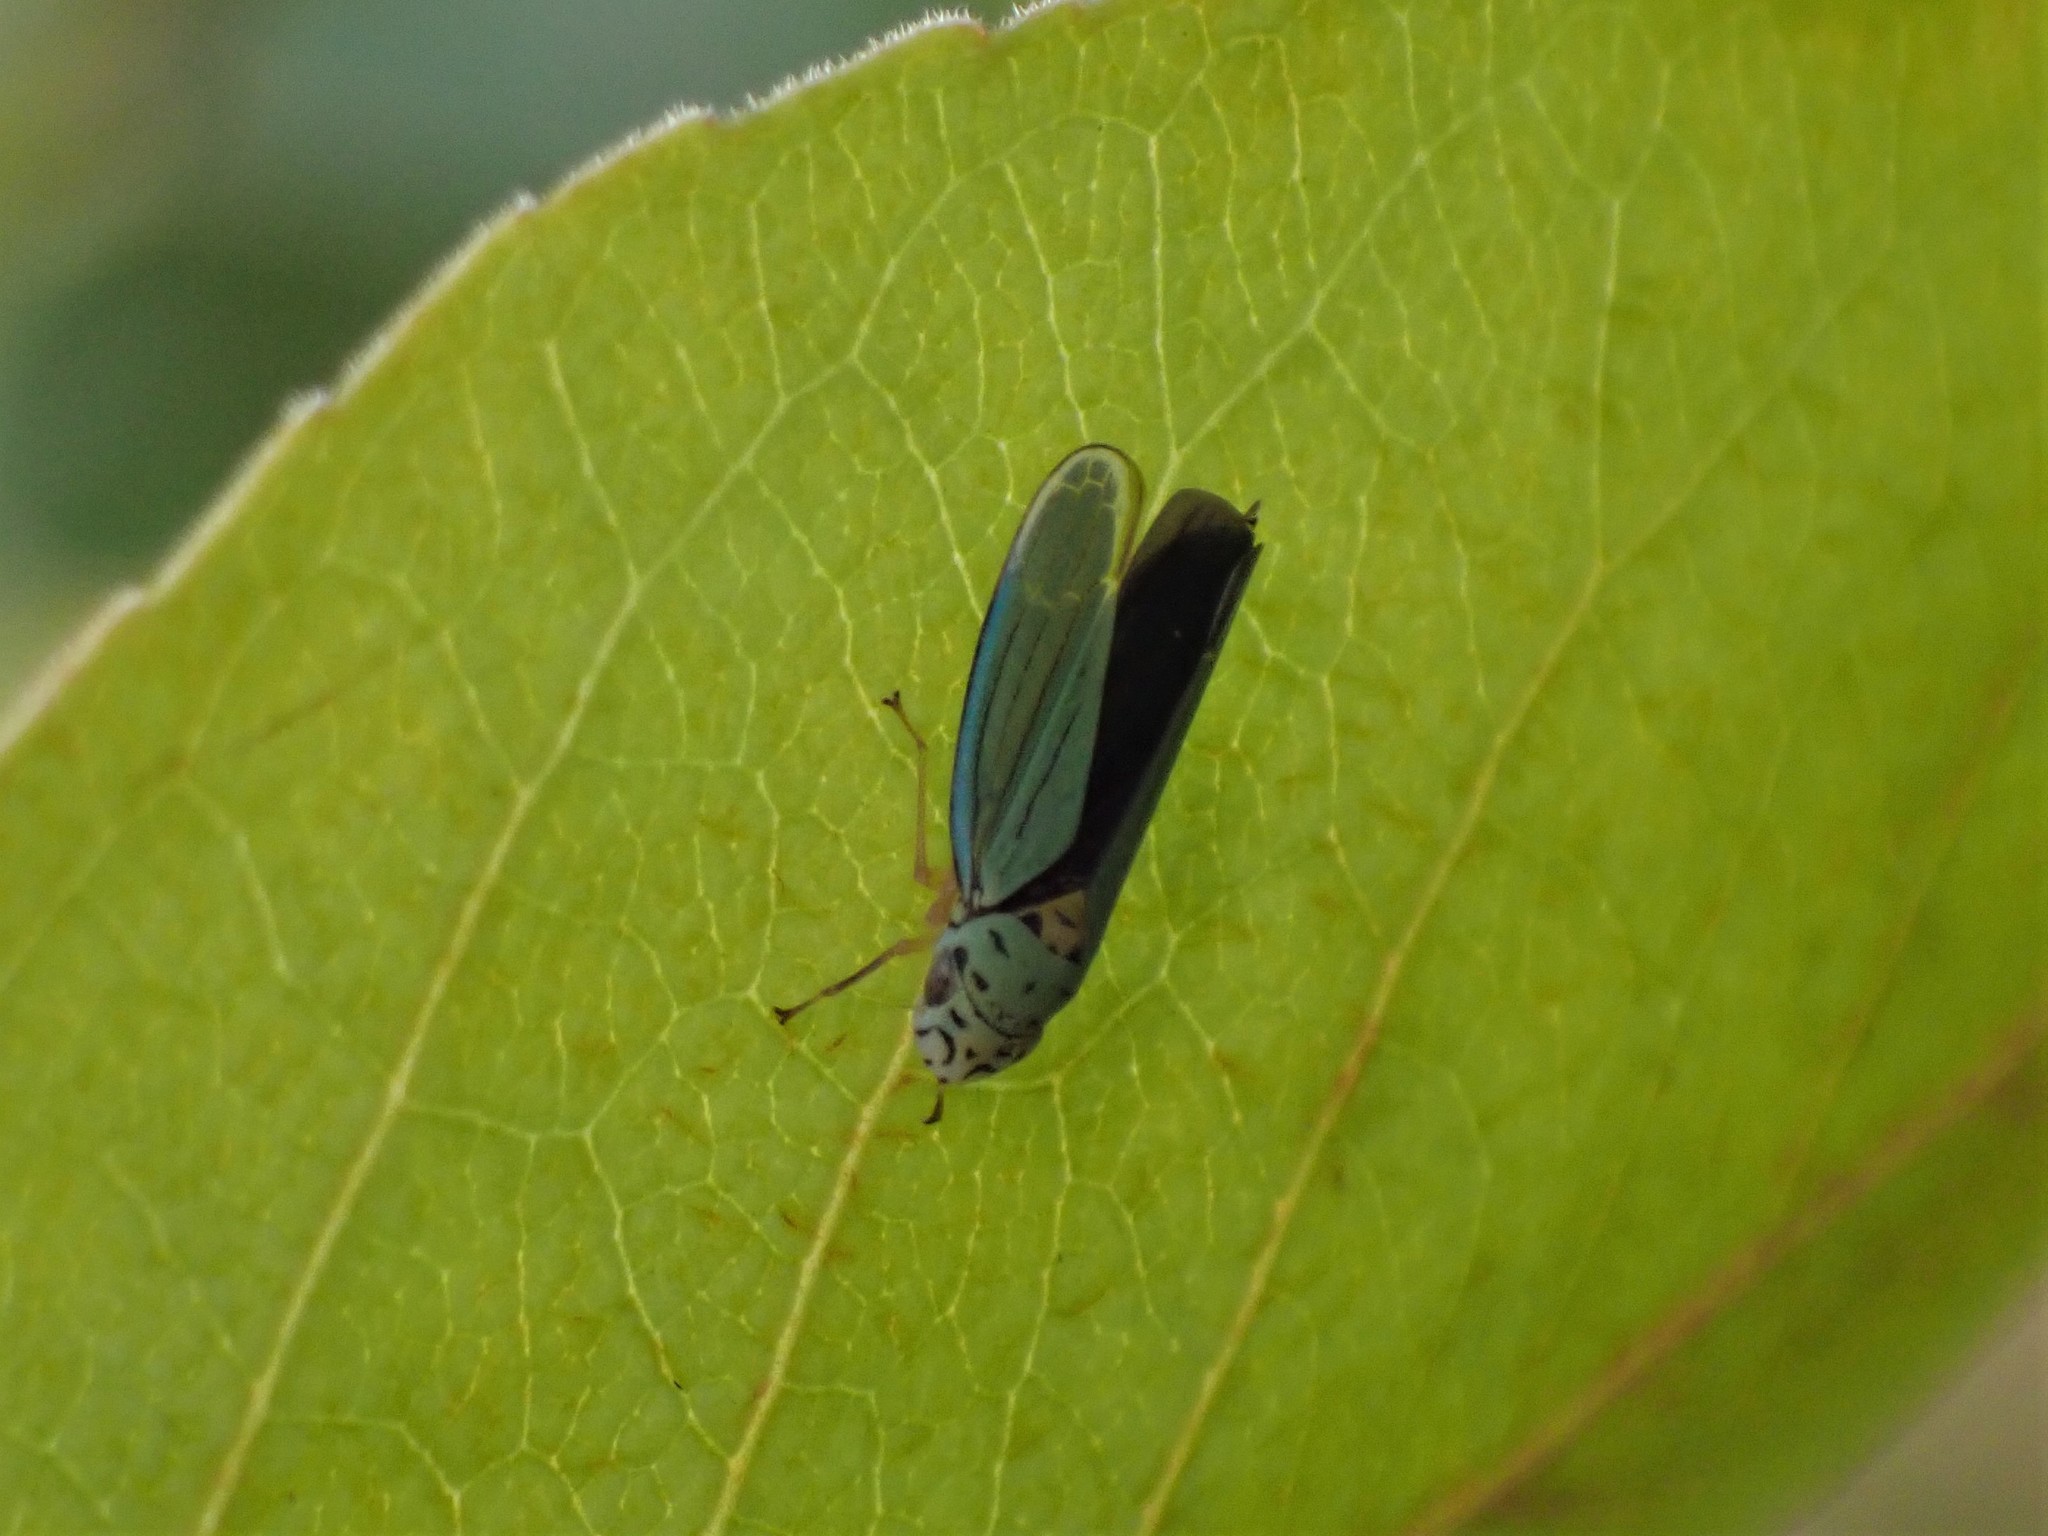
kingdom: Animalia
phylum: Arthropoda
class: Insecta
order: Hemiptera
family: Cicadellidae
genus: Graphocephala
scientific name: Graphocephala atropunctata
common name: Blue-green sharpshooter
